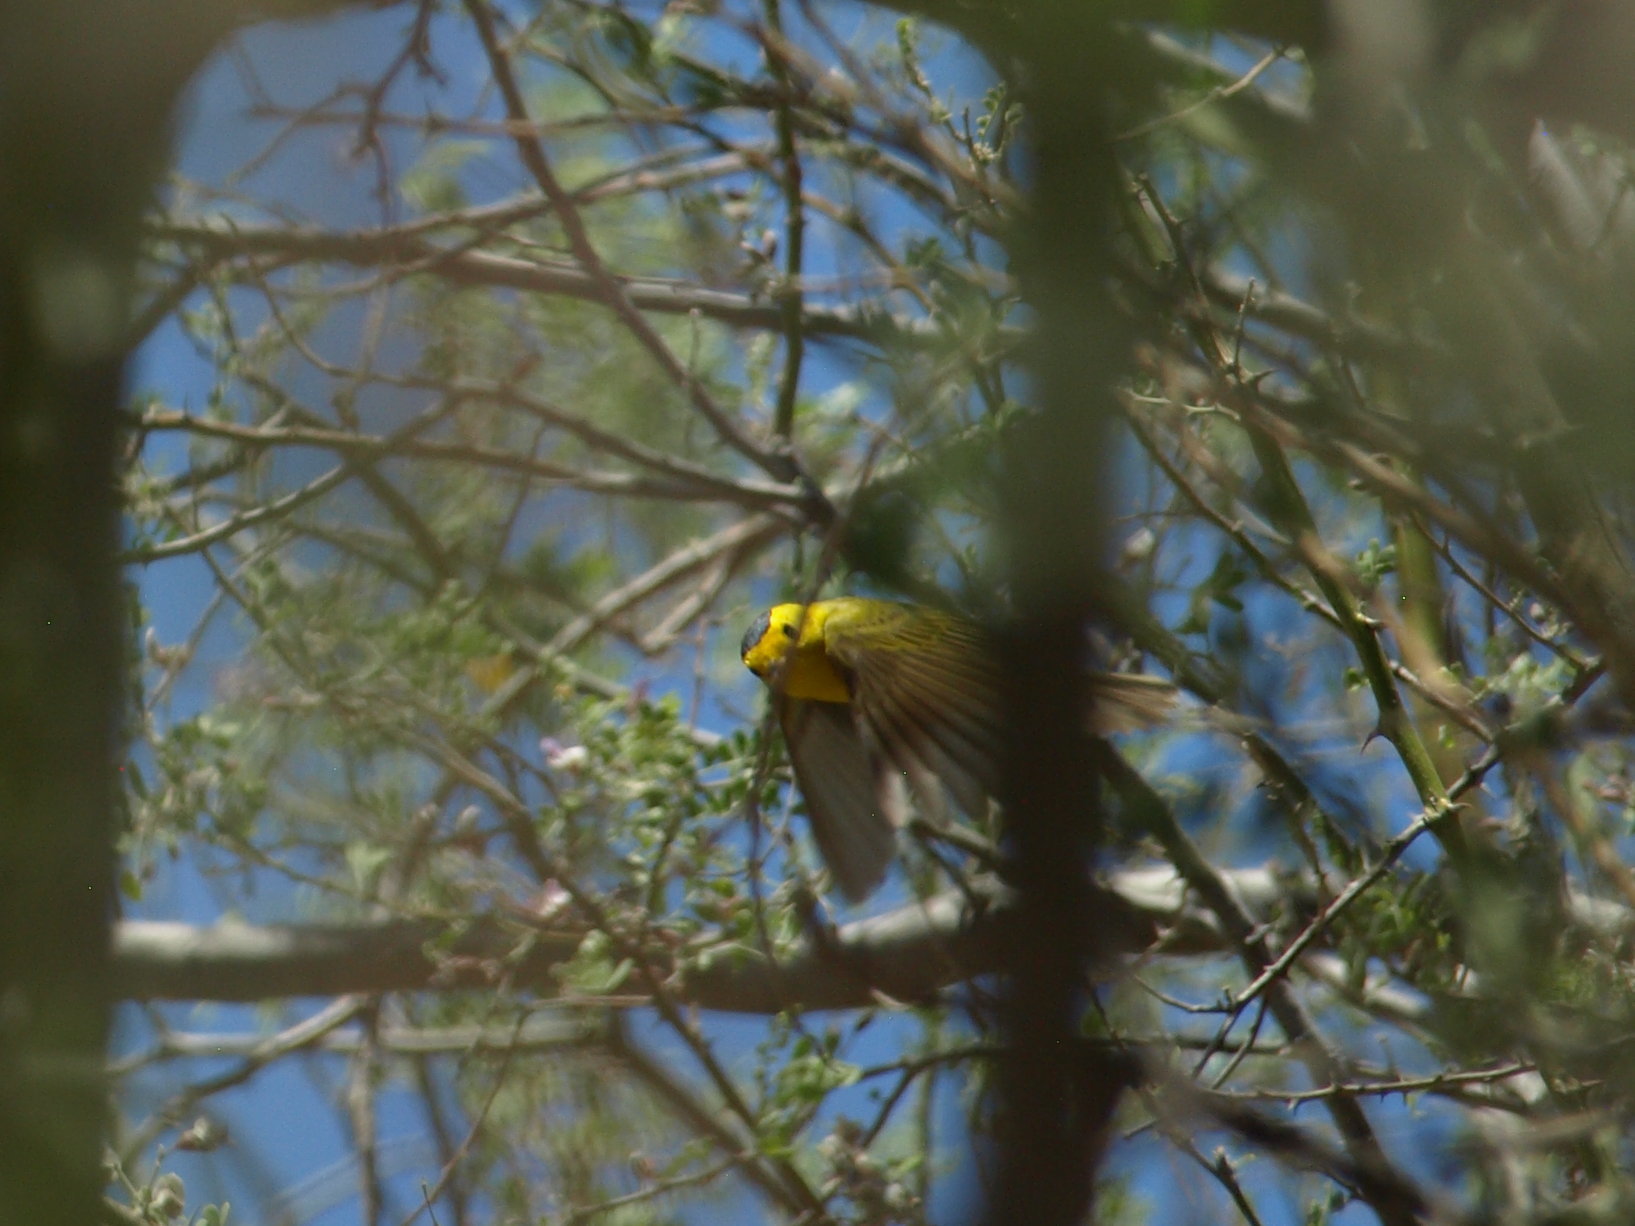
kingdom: Animalia
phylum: Chordata
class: Aves
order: Passeriformes
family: Parulidae
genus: Cardellina
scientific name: Cardellina pusilla
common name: Wilson's warbler
